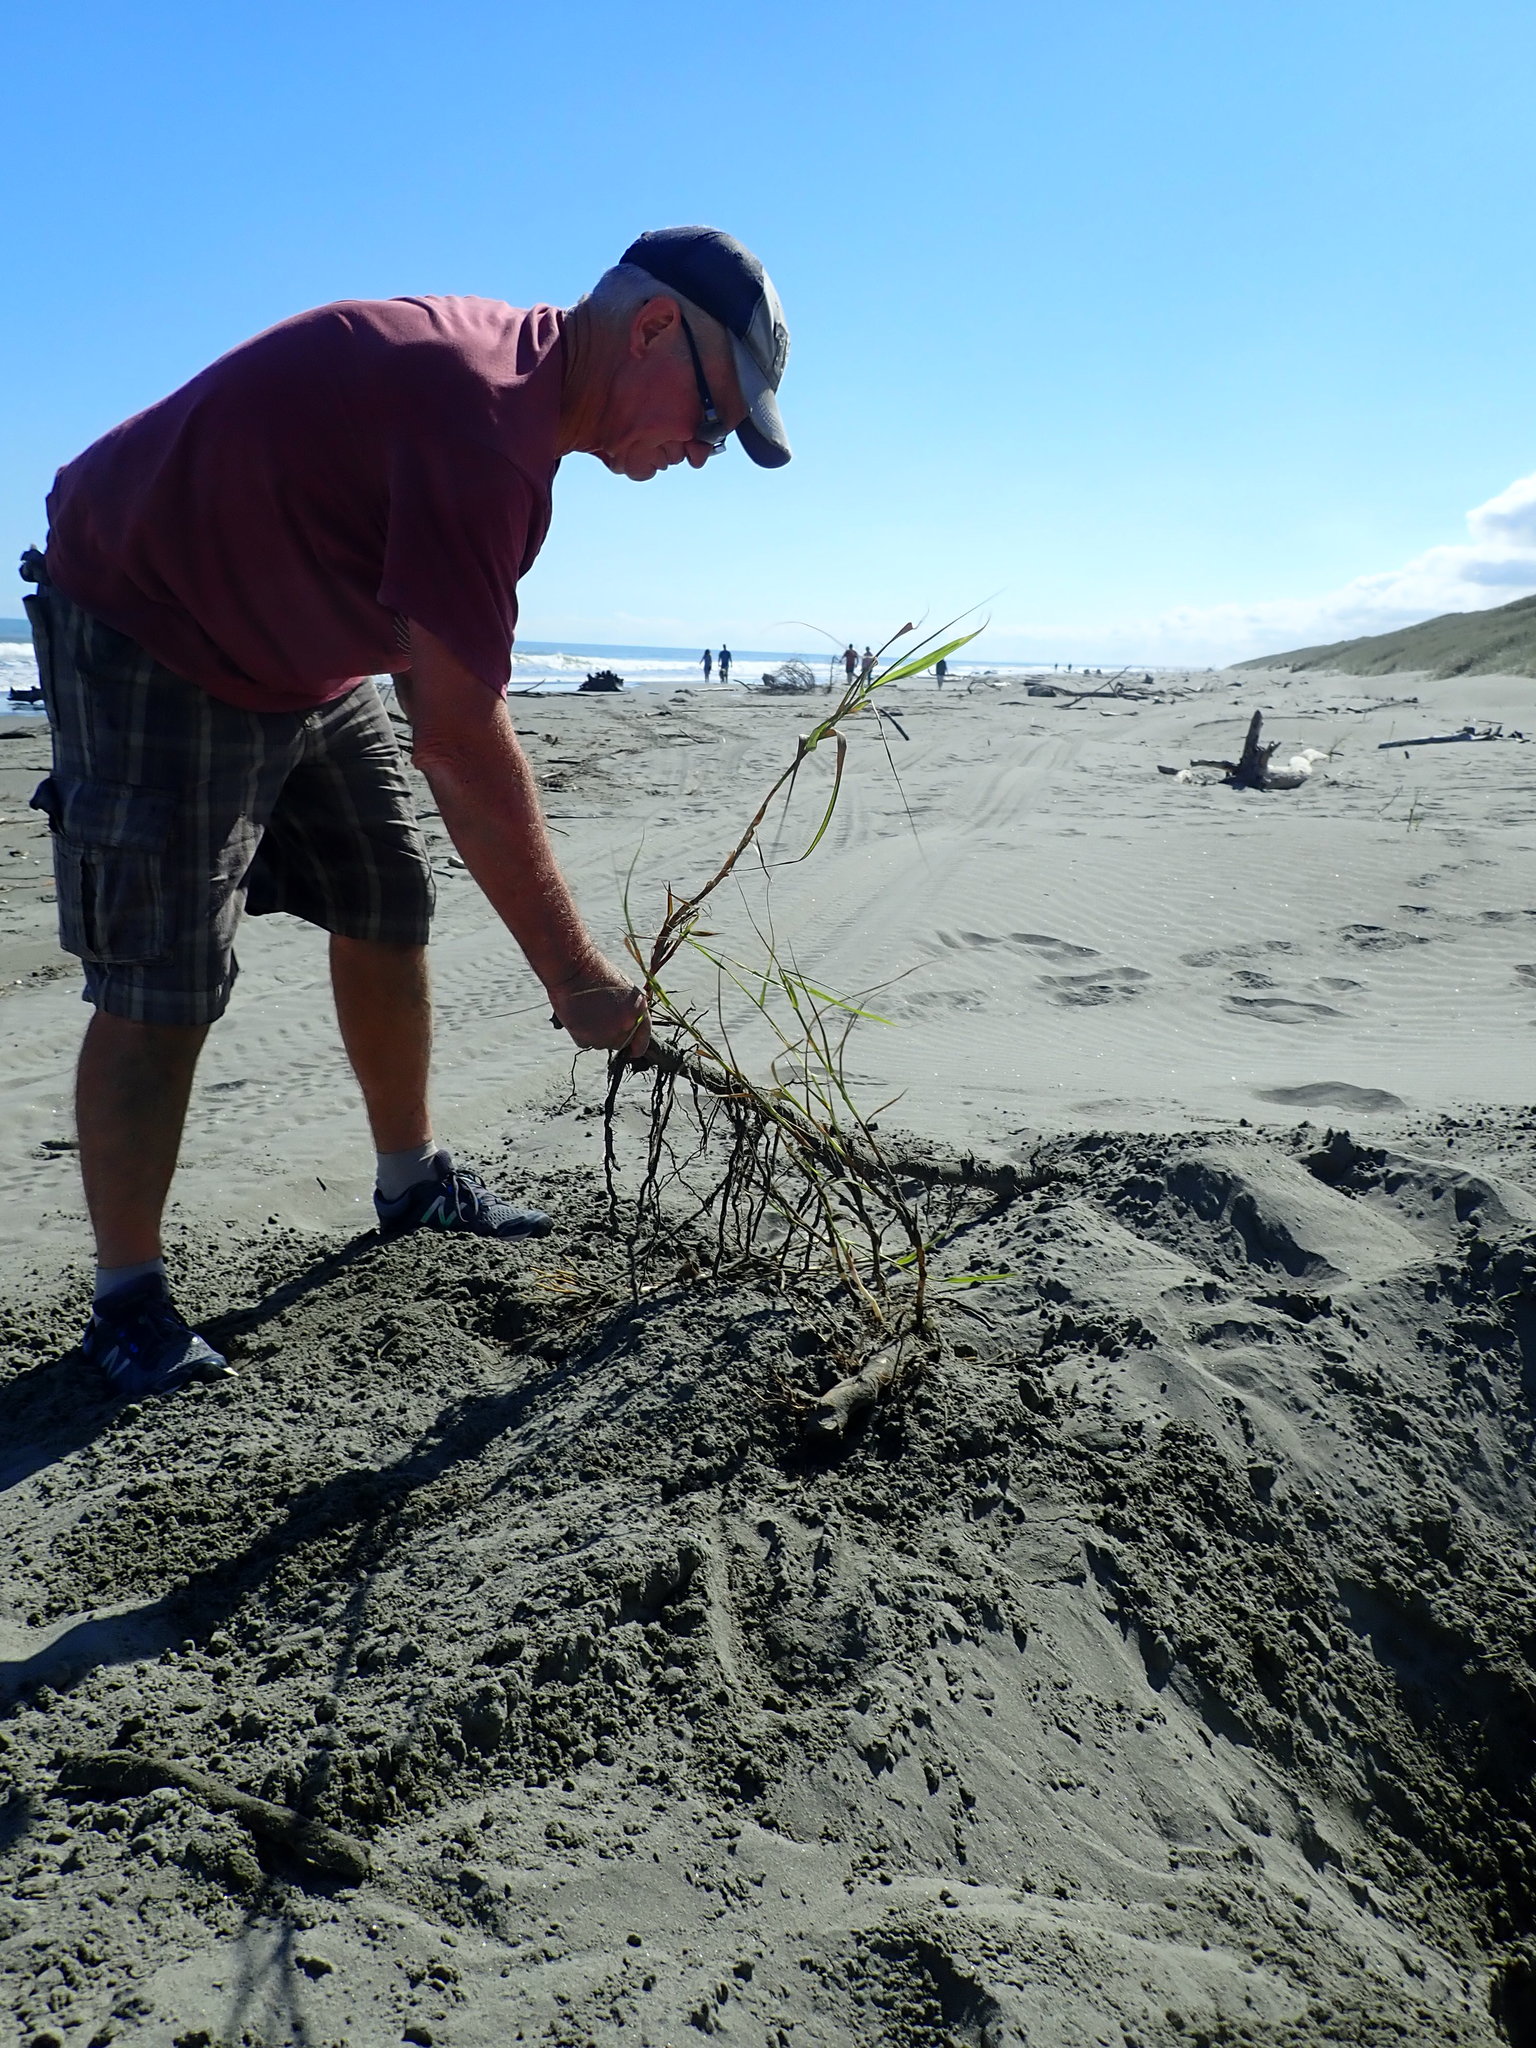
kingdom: Plantae
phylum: Tracheophyta
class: Liliopsida
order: Poales
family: Poaceae
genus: Phragmites
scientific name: Phragmites karka
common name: Tropical reed
